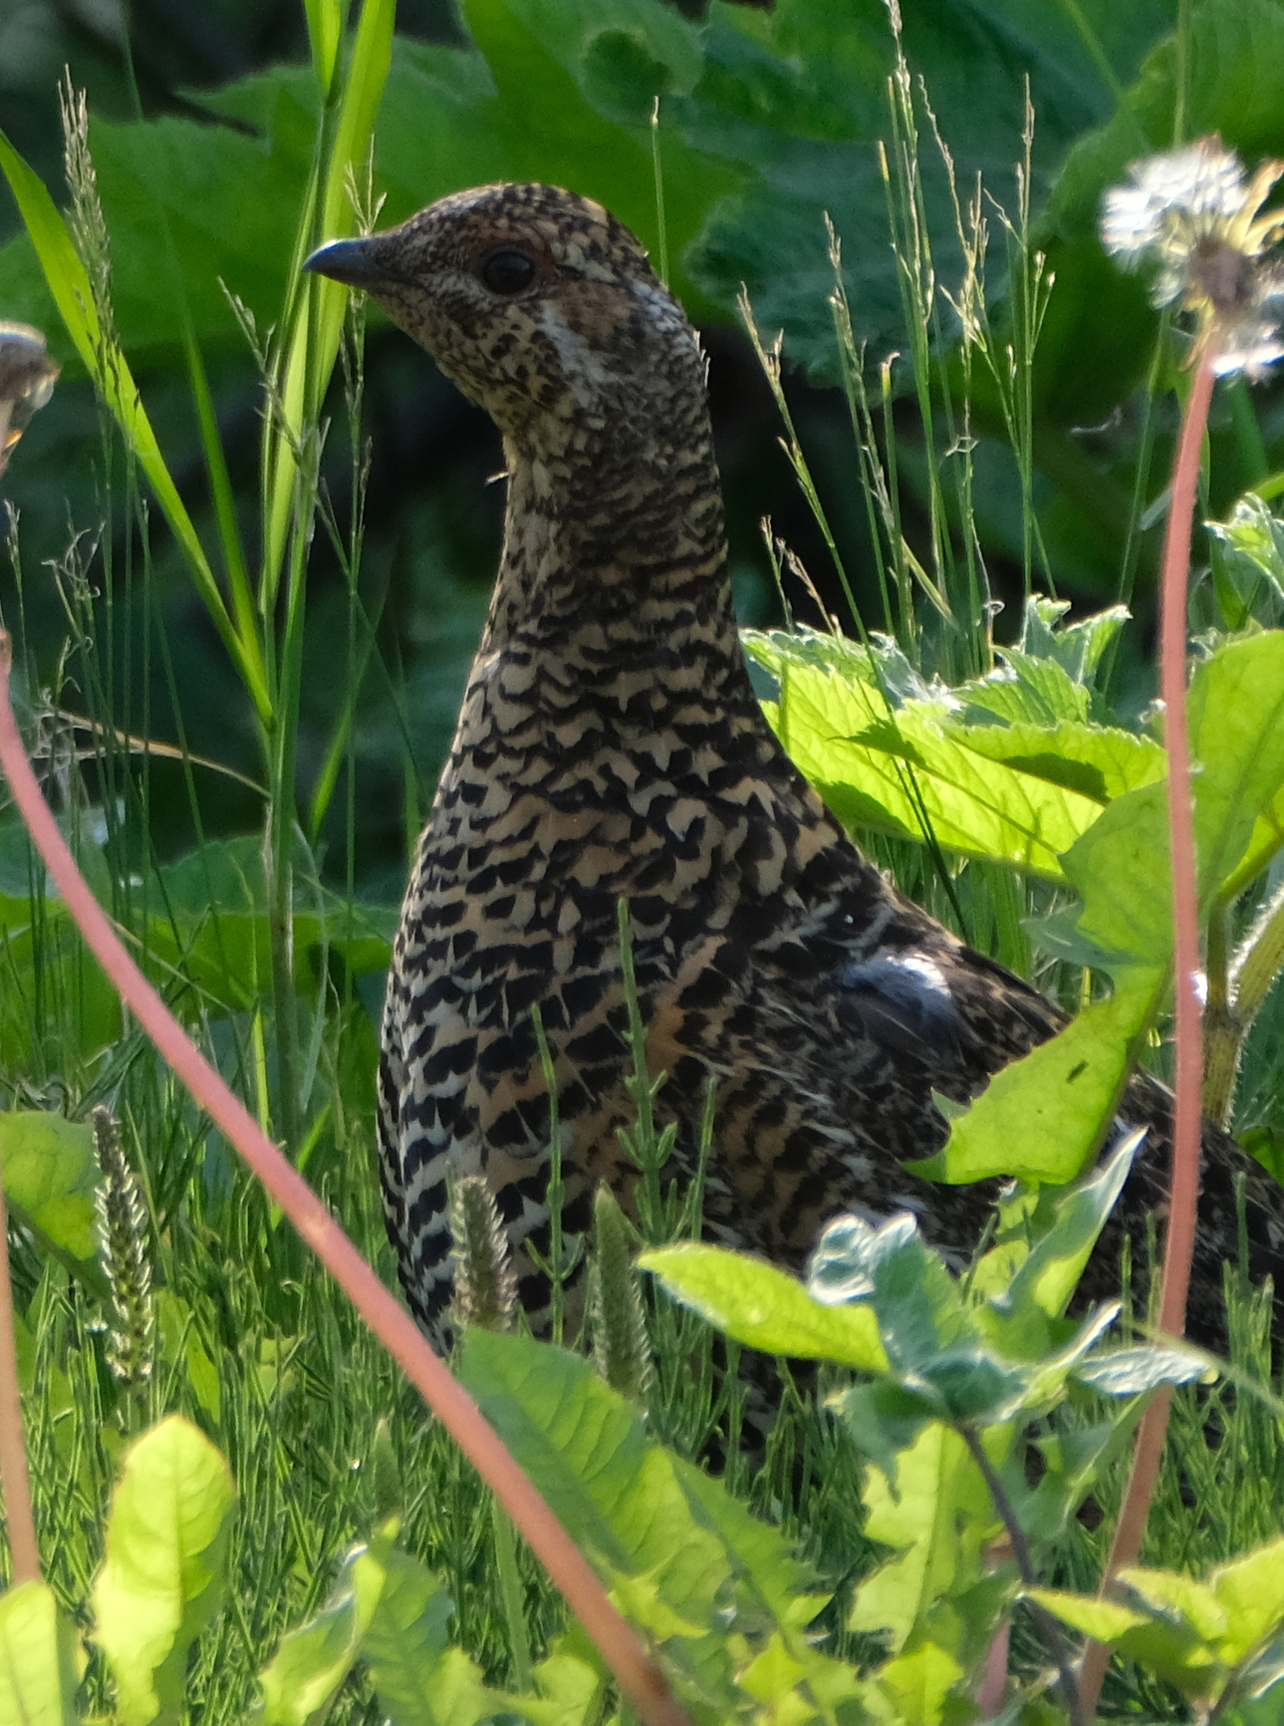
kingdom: Animalia
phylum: Chordata
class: Aves
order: Galliformes
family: Phasianidae
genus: Canachites
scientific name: Canachites canadensis
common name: Spruce grouse
